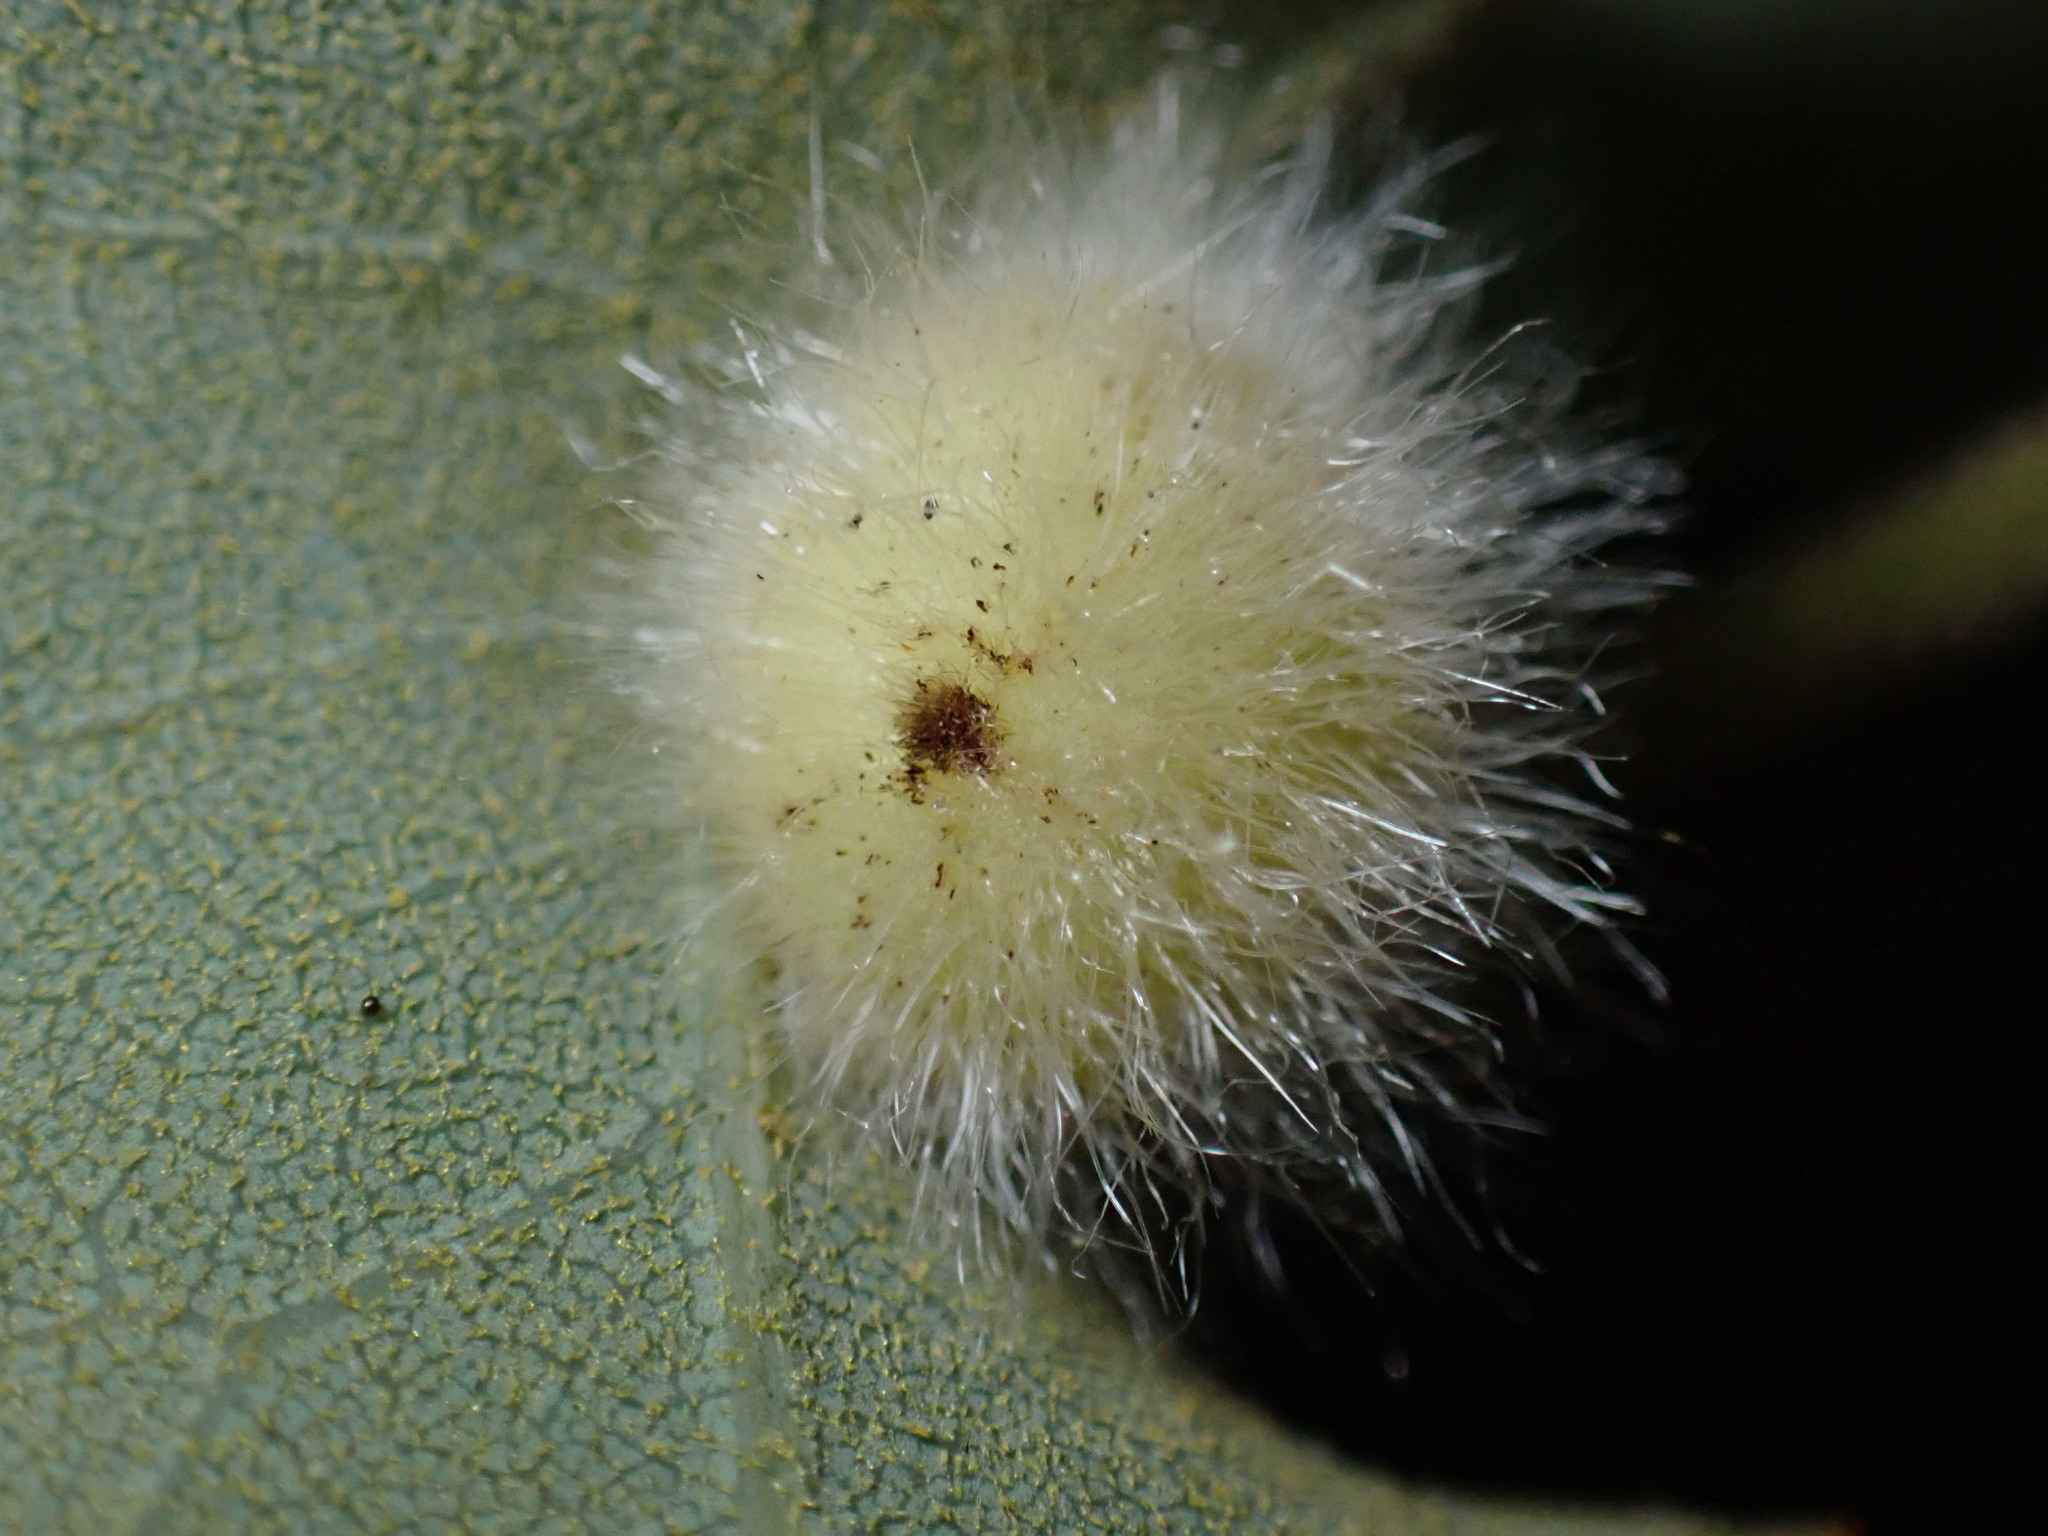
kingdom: Animalia
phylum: Arthropoda
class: Insecta
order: Hymenoptera
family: Cynipidae
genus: Disholandricus
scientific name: Disholandricus
